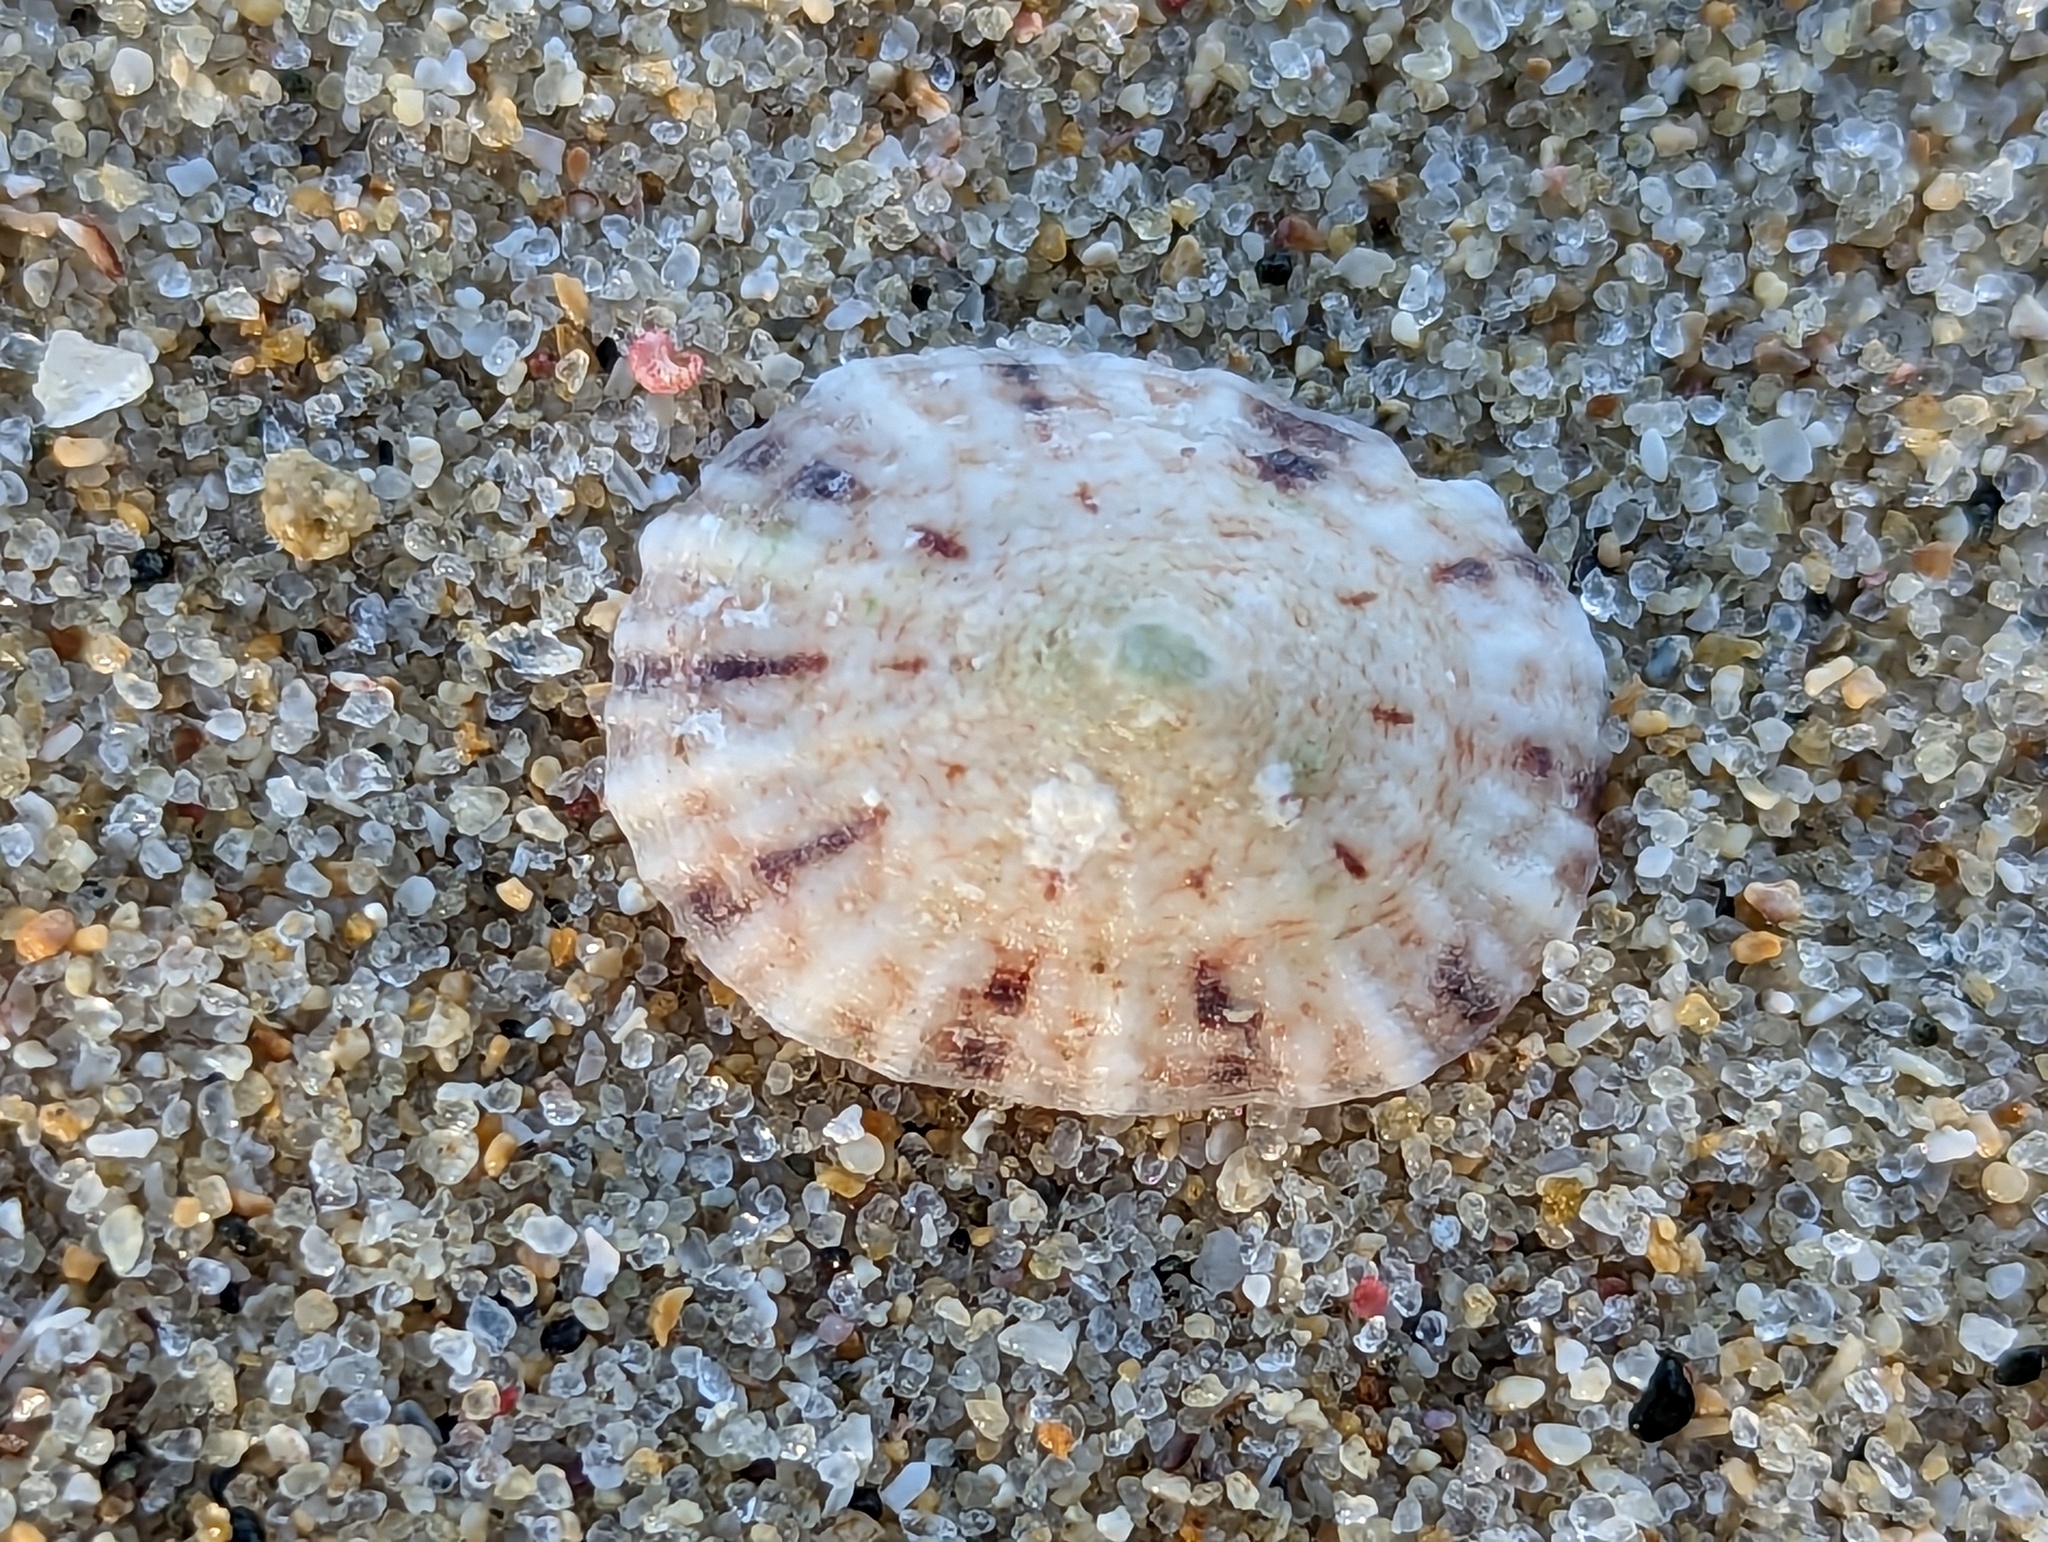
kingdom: Animalia
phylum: Mollusca
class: Gastropoda
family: Eoacmaeidae
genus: Eoacmaea
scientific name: Eoacmaea pustulata
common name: Spotted limpet
